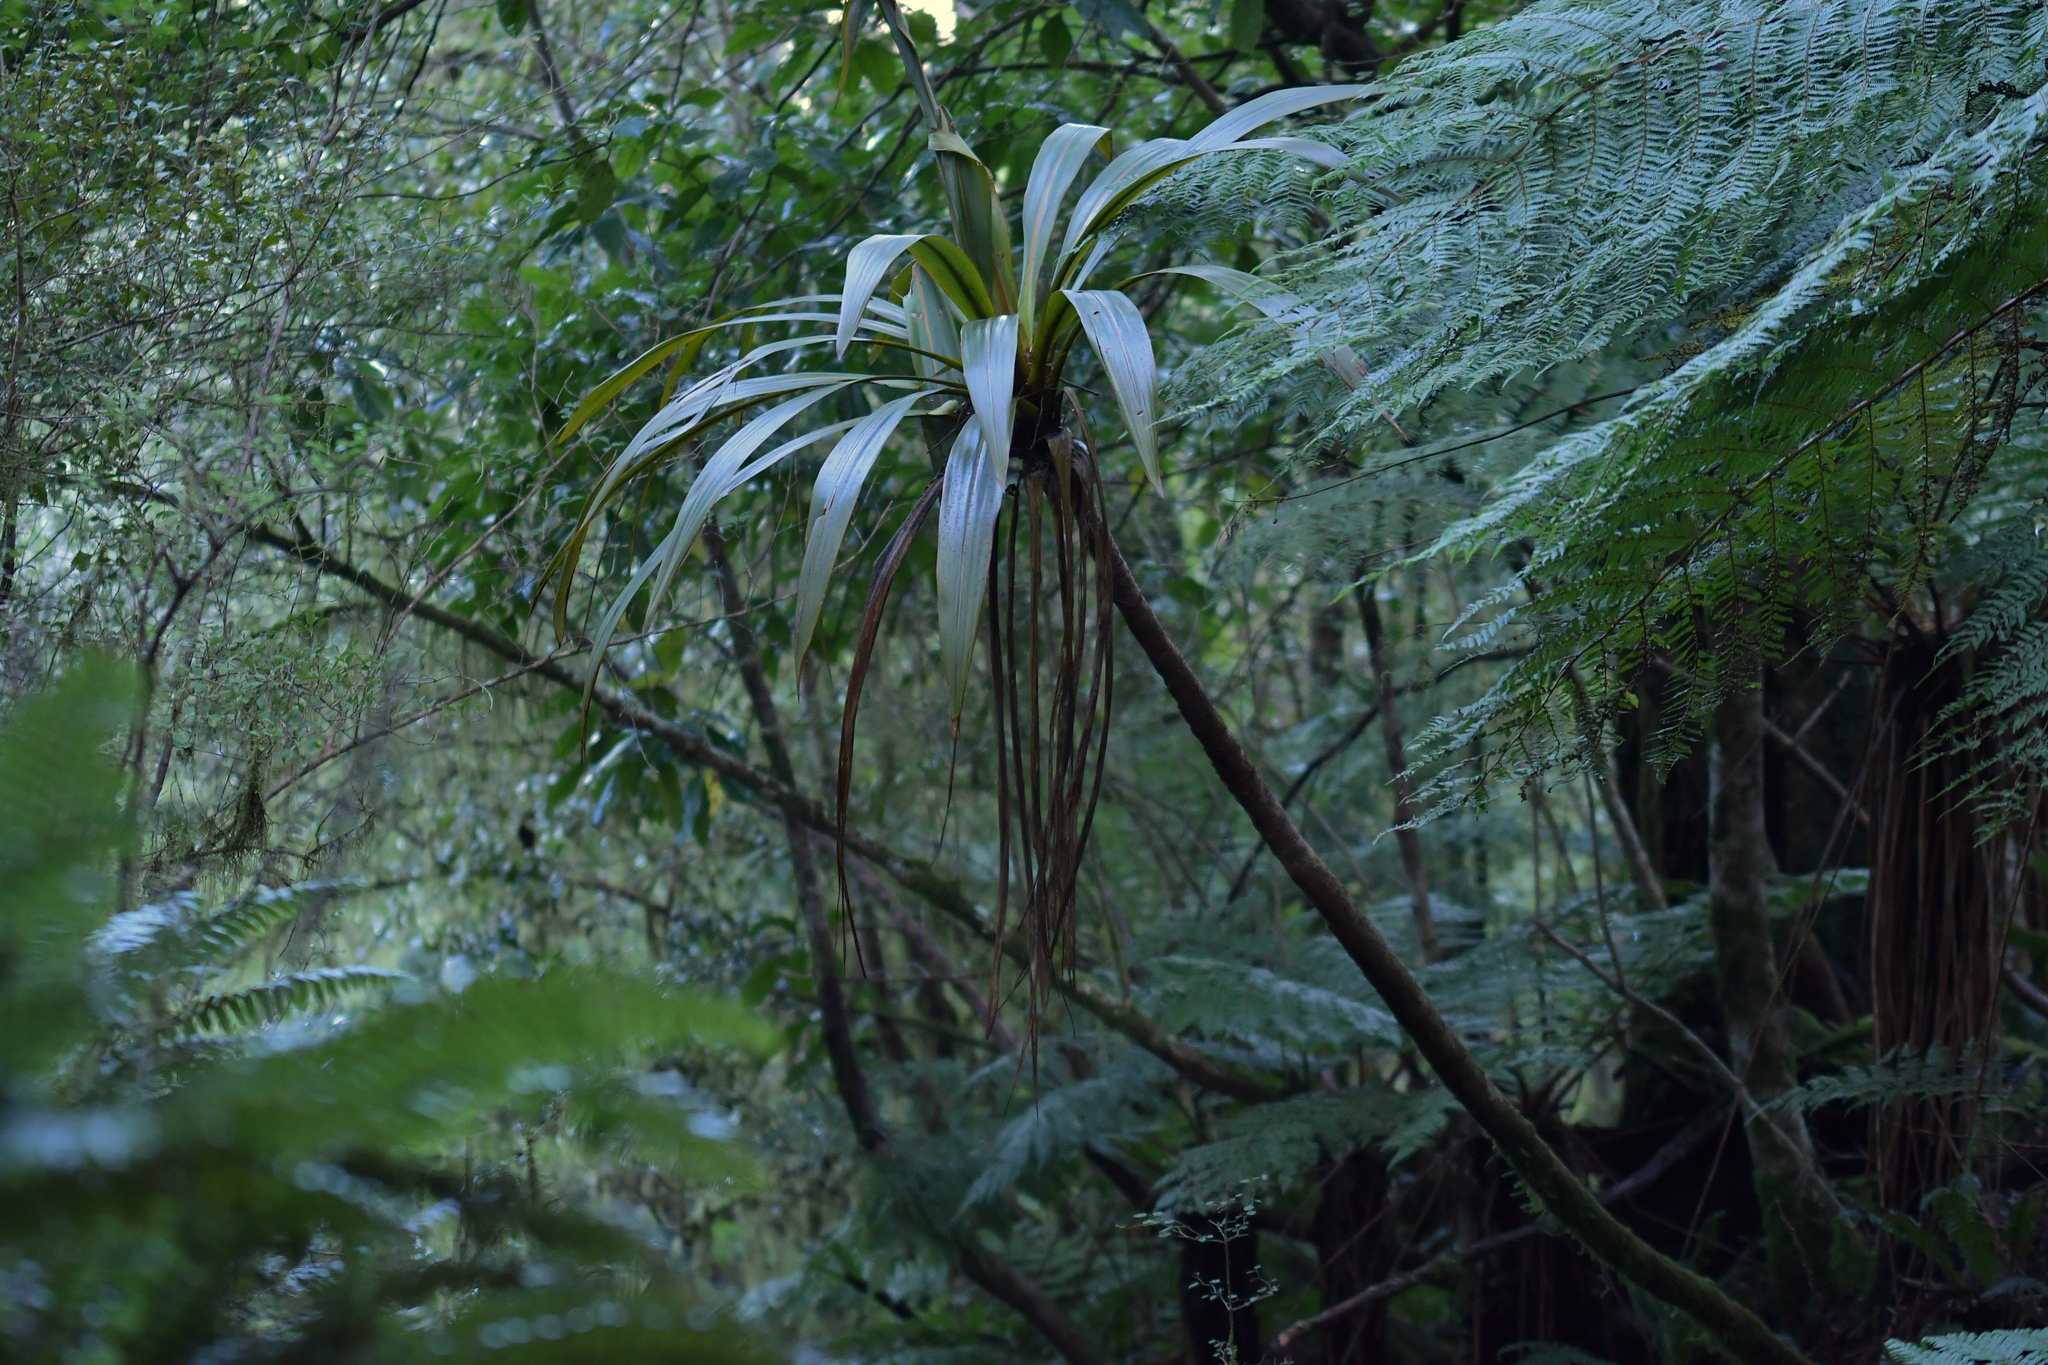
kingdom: Plantae
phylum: Tracheophyta
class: Liliopsida
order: Asparagales
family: Asparagaceae
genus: Cordyline
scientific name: Cordyline indivisa
